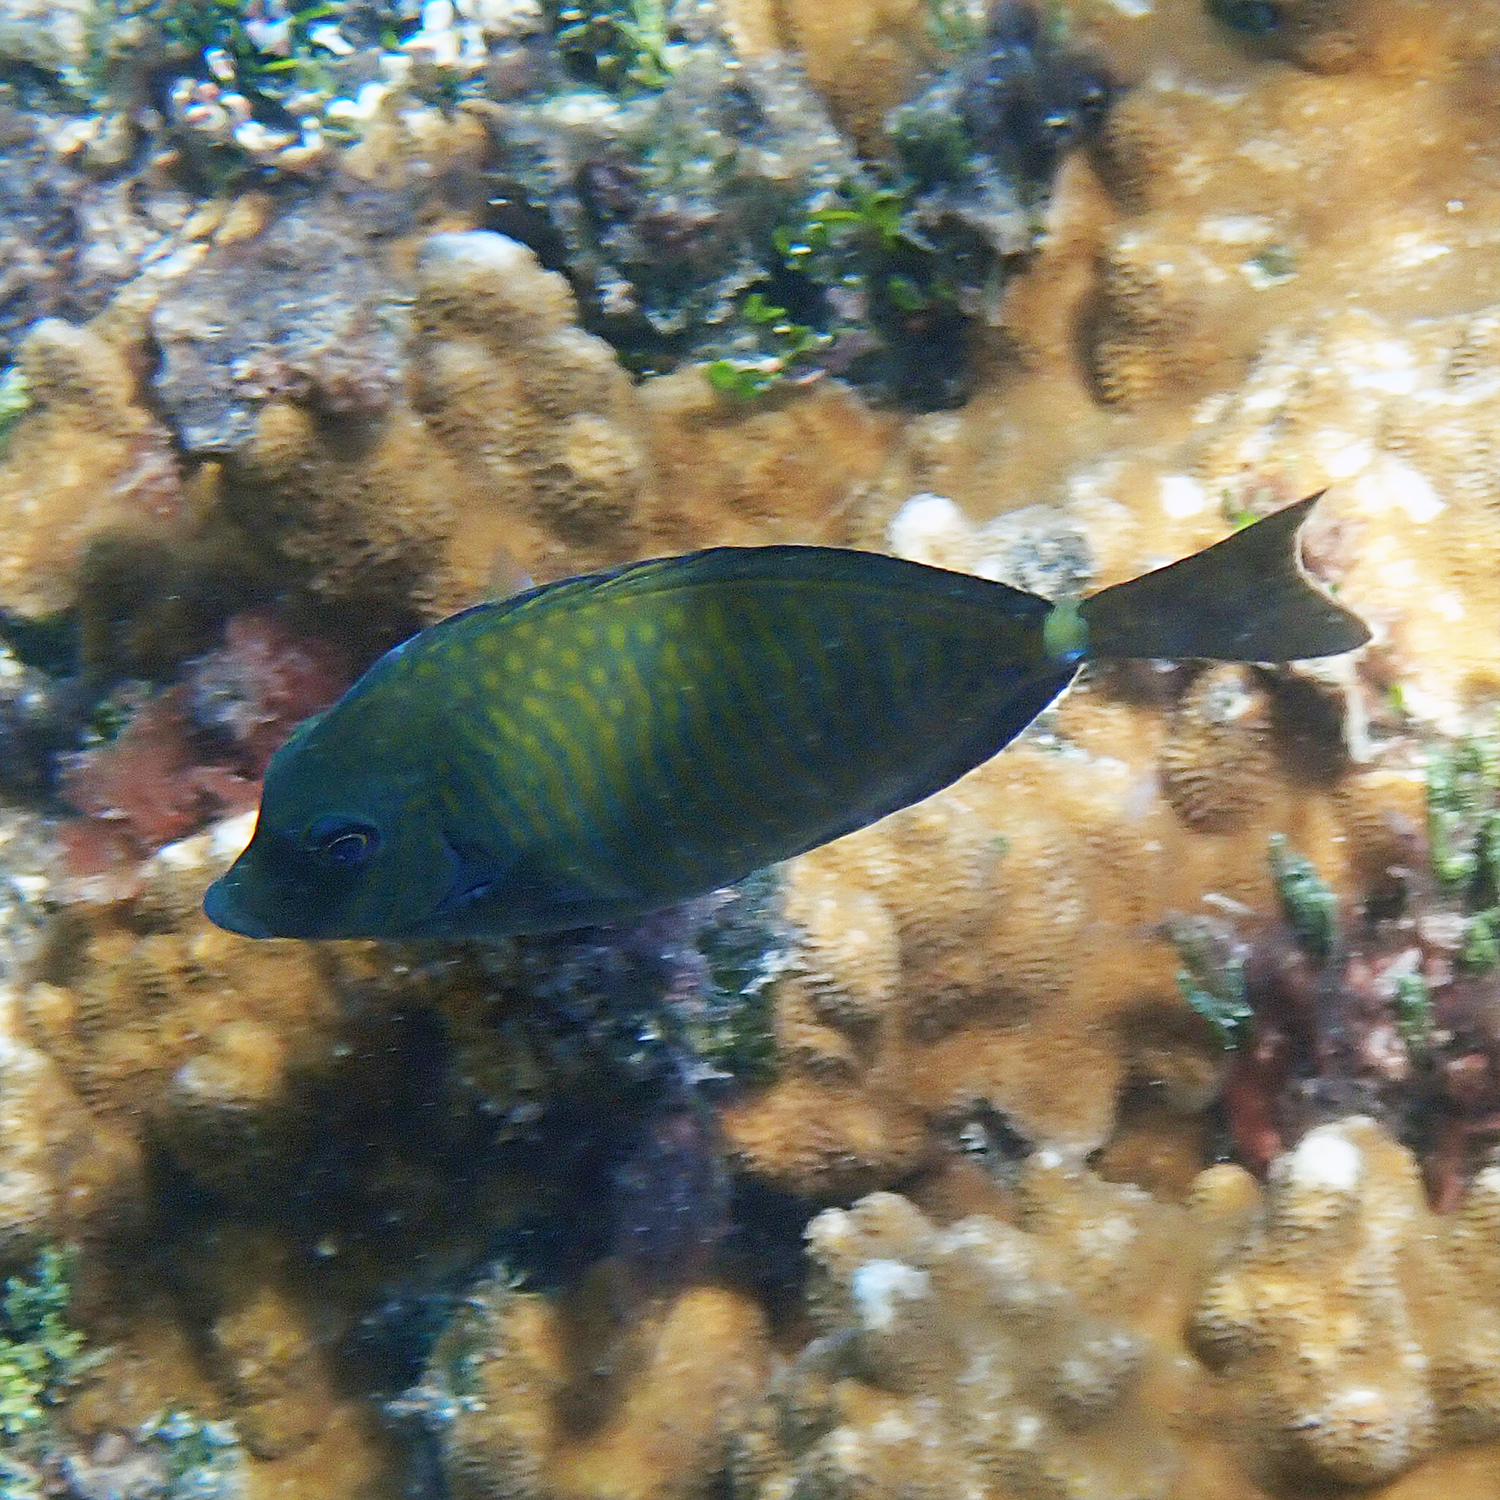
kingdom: Animalia
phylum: Chordata
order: Perciformes
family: Acanthuridae
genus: Prionurus
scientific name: Prionurus maculatus
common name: Yellowspotted sawtail
